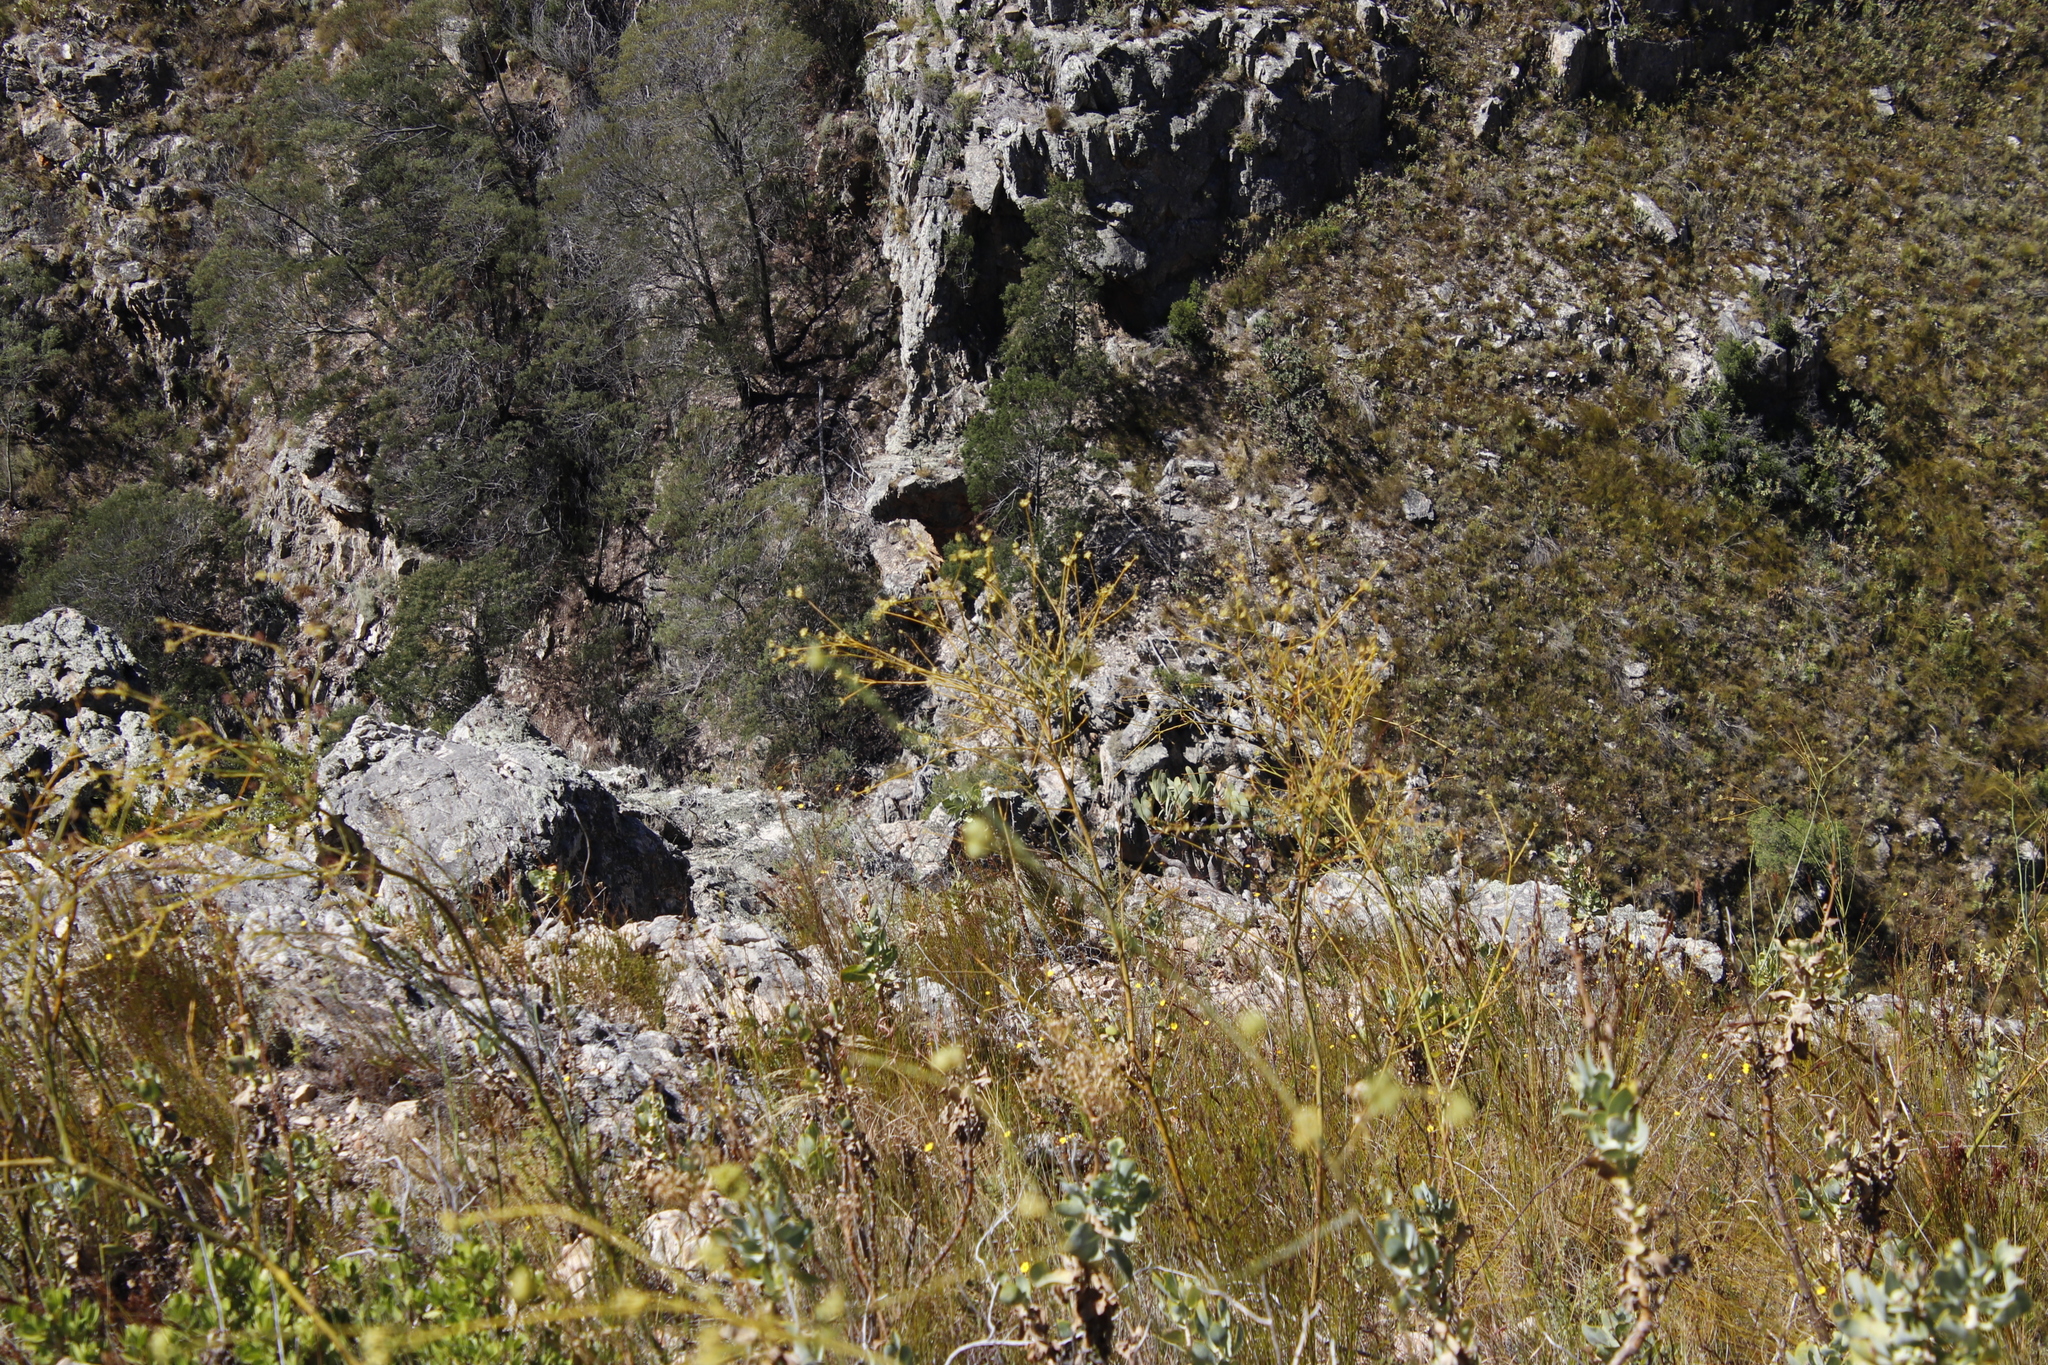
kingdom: Plantae
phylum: Tracheophyta
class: Magnoliopsida
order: Asterales
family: Asteraceae
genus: Othonna
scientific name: Othonna quinquedentata
